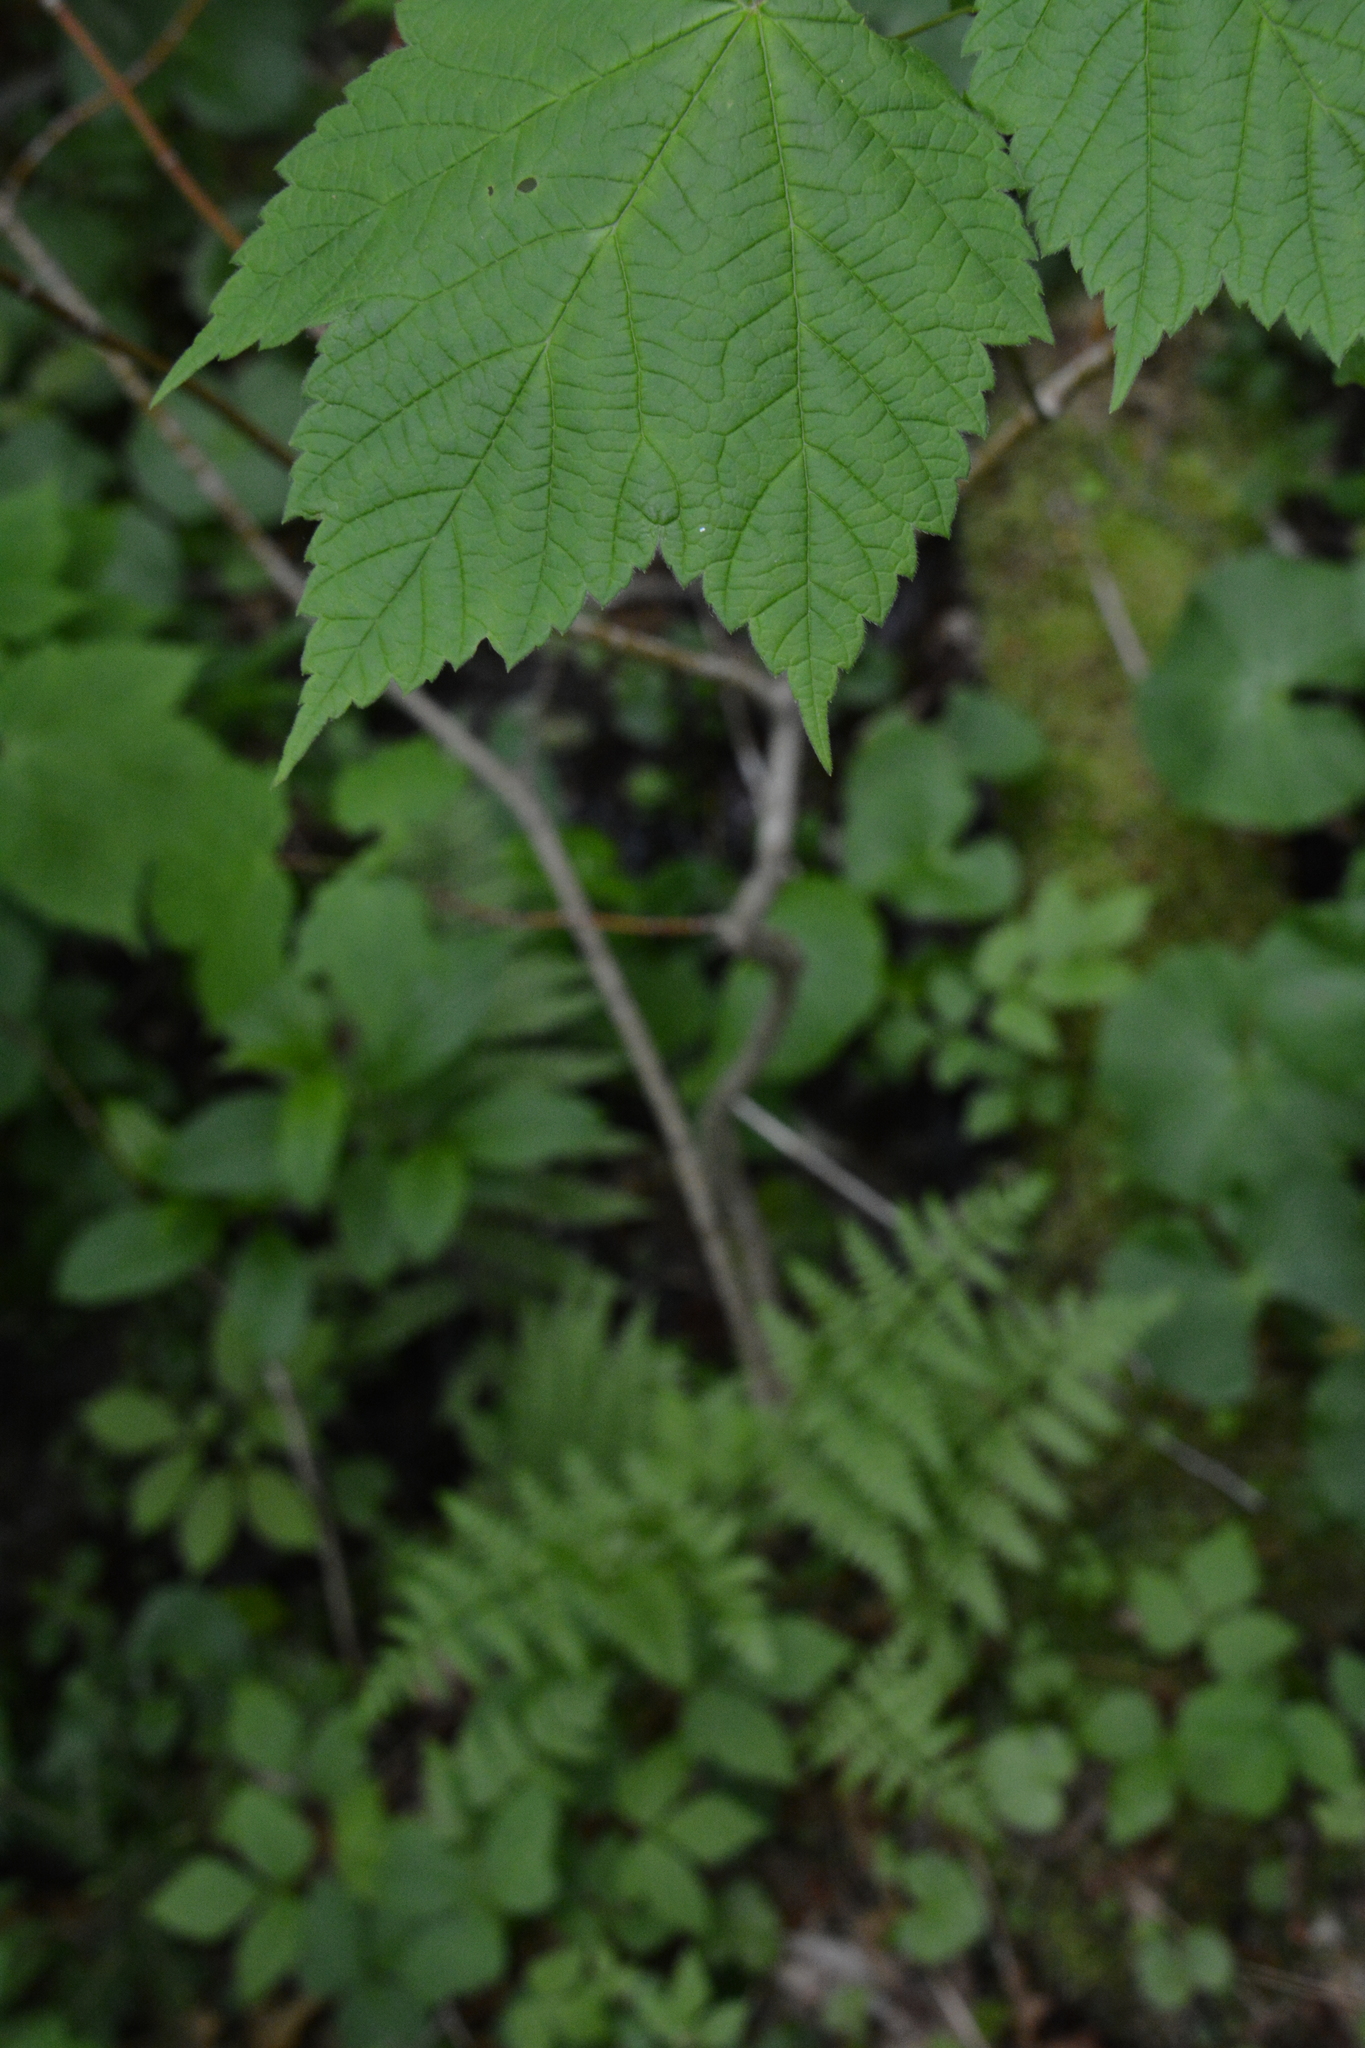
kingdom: Plantae
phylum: Tracheophyta
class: Magnoliopsida
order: Sapindales
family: Sapindaceae
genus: Acer
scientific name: Acer spicatum
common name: Mountain maple
